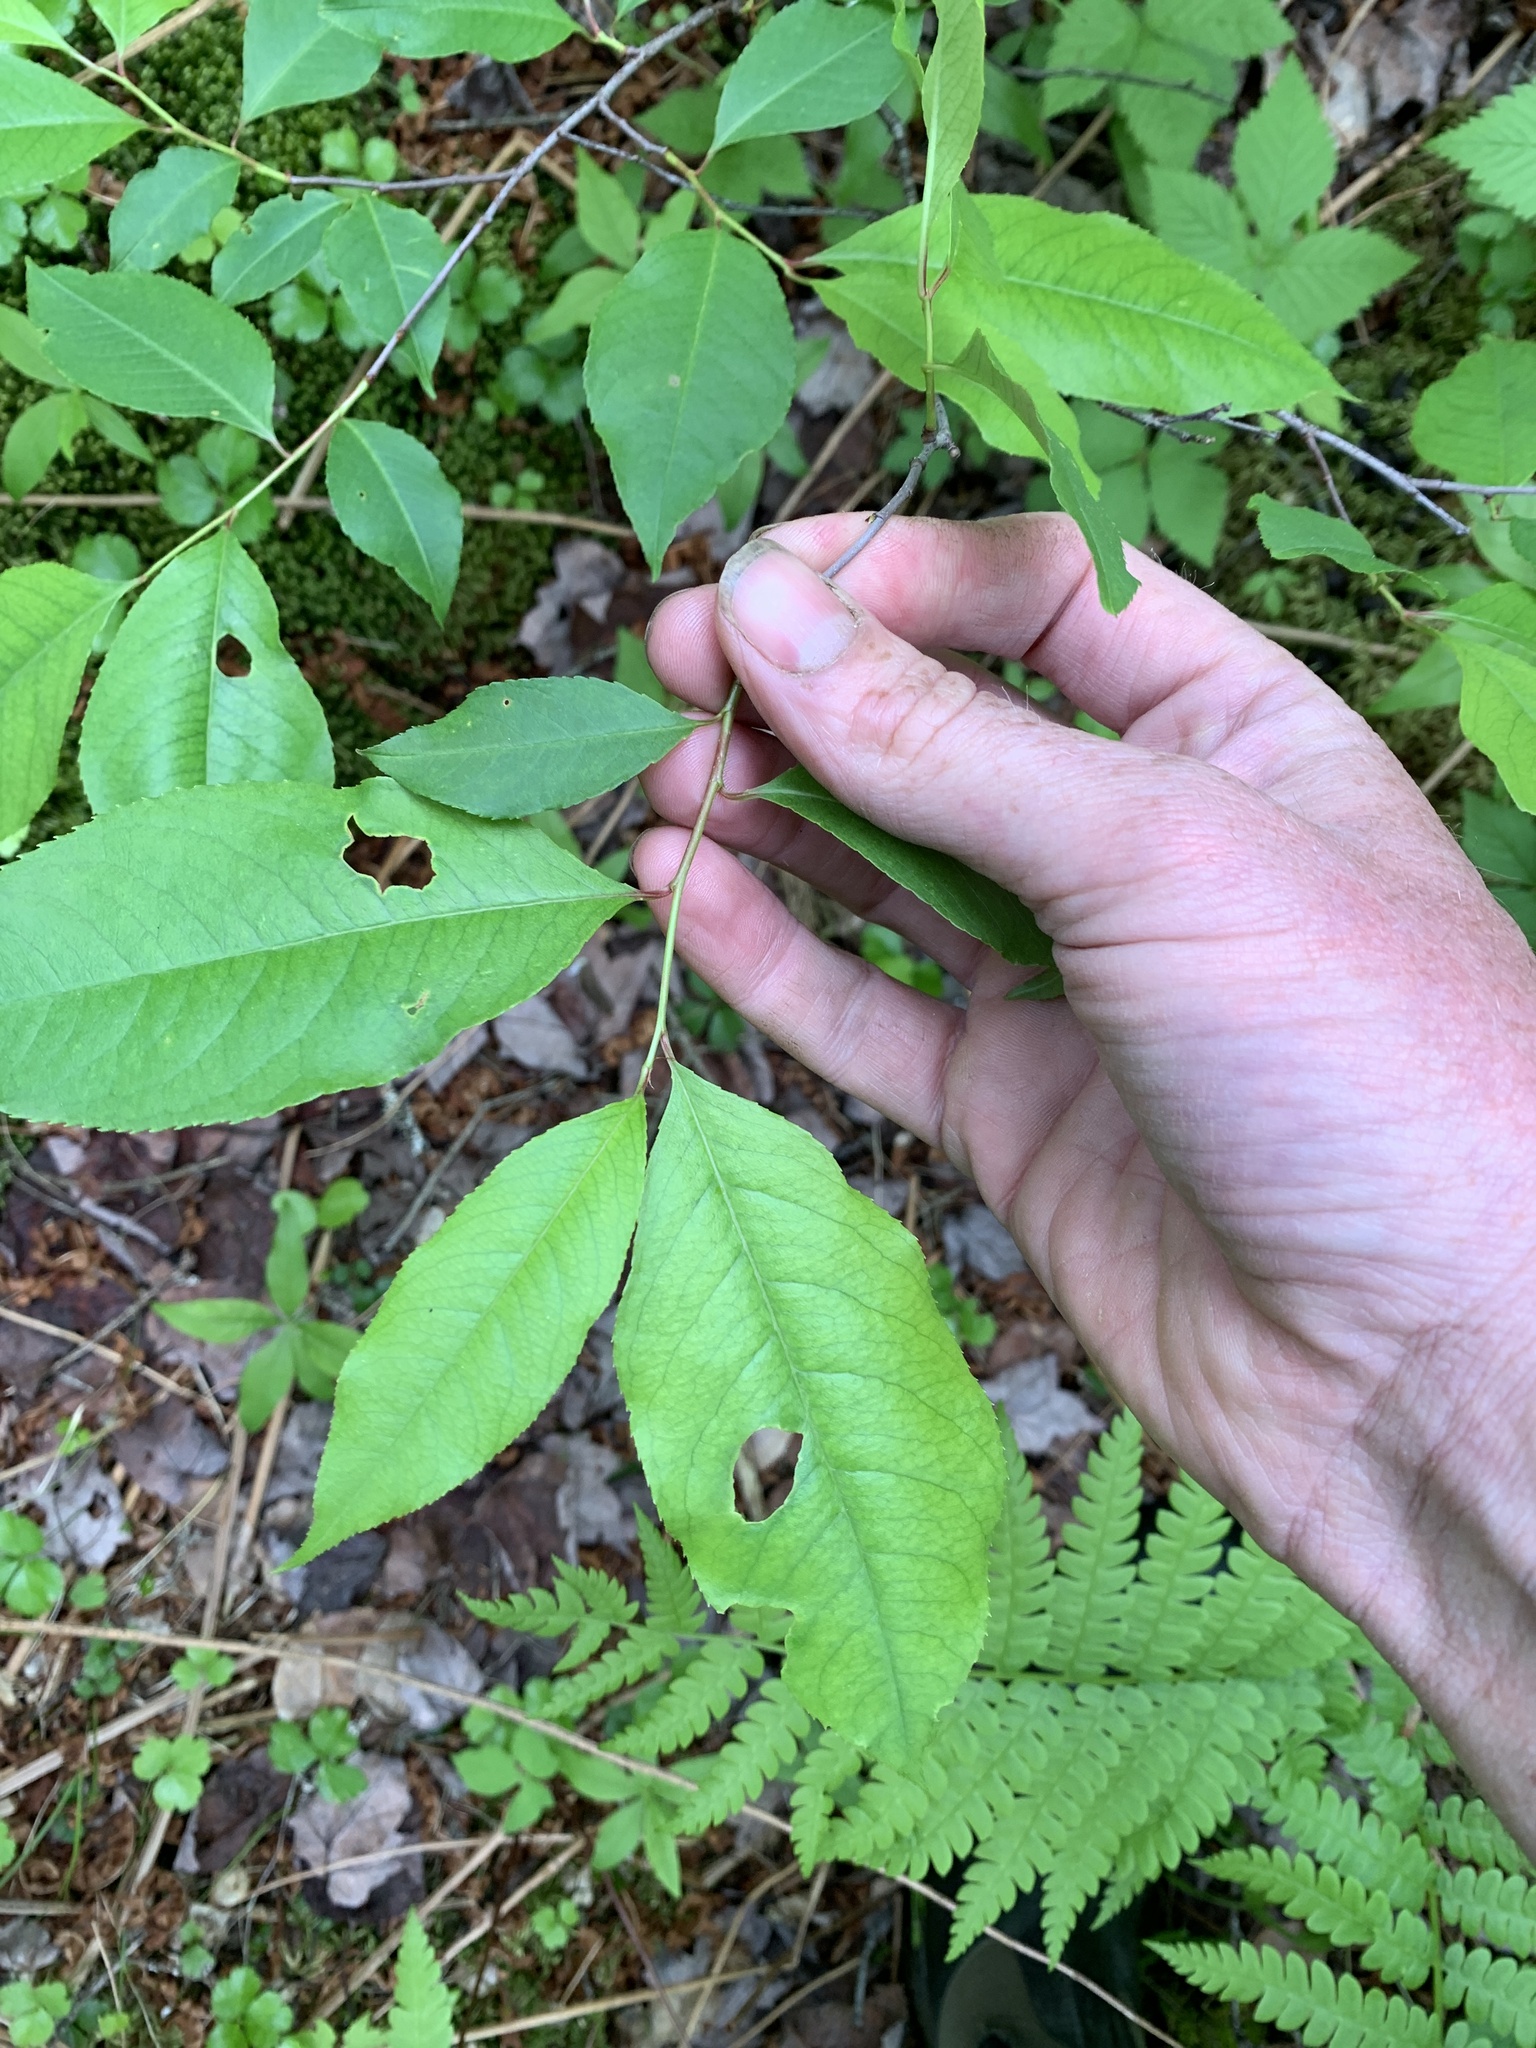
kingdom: Plantae
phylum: Tracheophyta
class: Magnoliopsida
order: Rosales
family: Rosaceae
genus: Prunus
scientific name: Prunus serotina
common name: Black cherry
